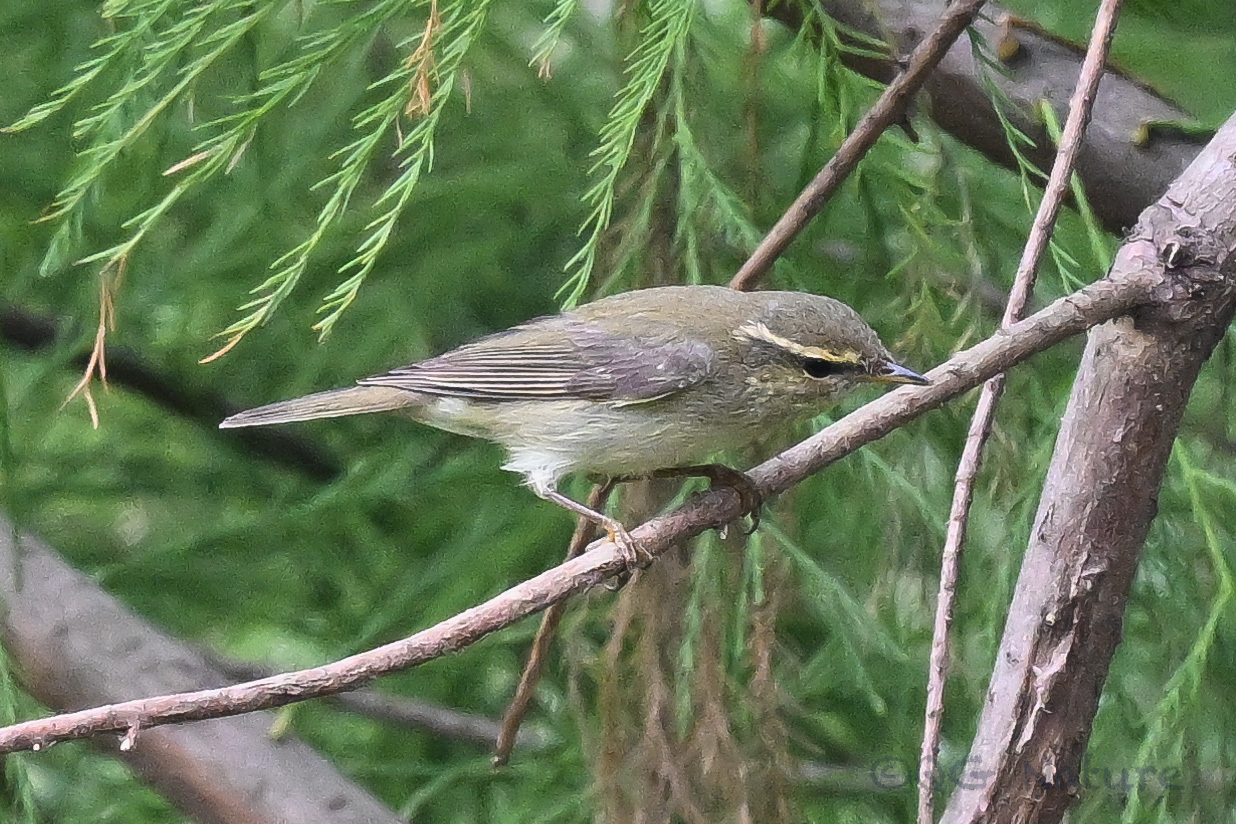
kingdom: Animalia
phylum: Chordata
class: Aves
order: Passeriformes
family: Phylloscopidae
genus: Phylloscopus
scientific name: Phylloscopus borealis
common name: Arctic warbler
